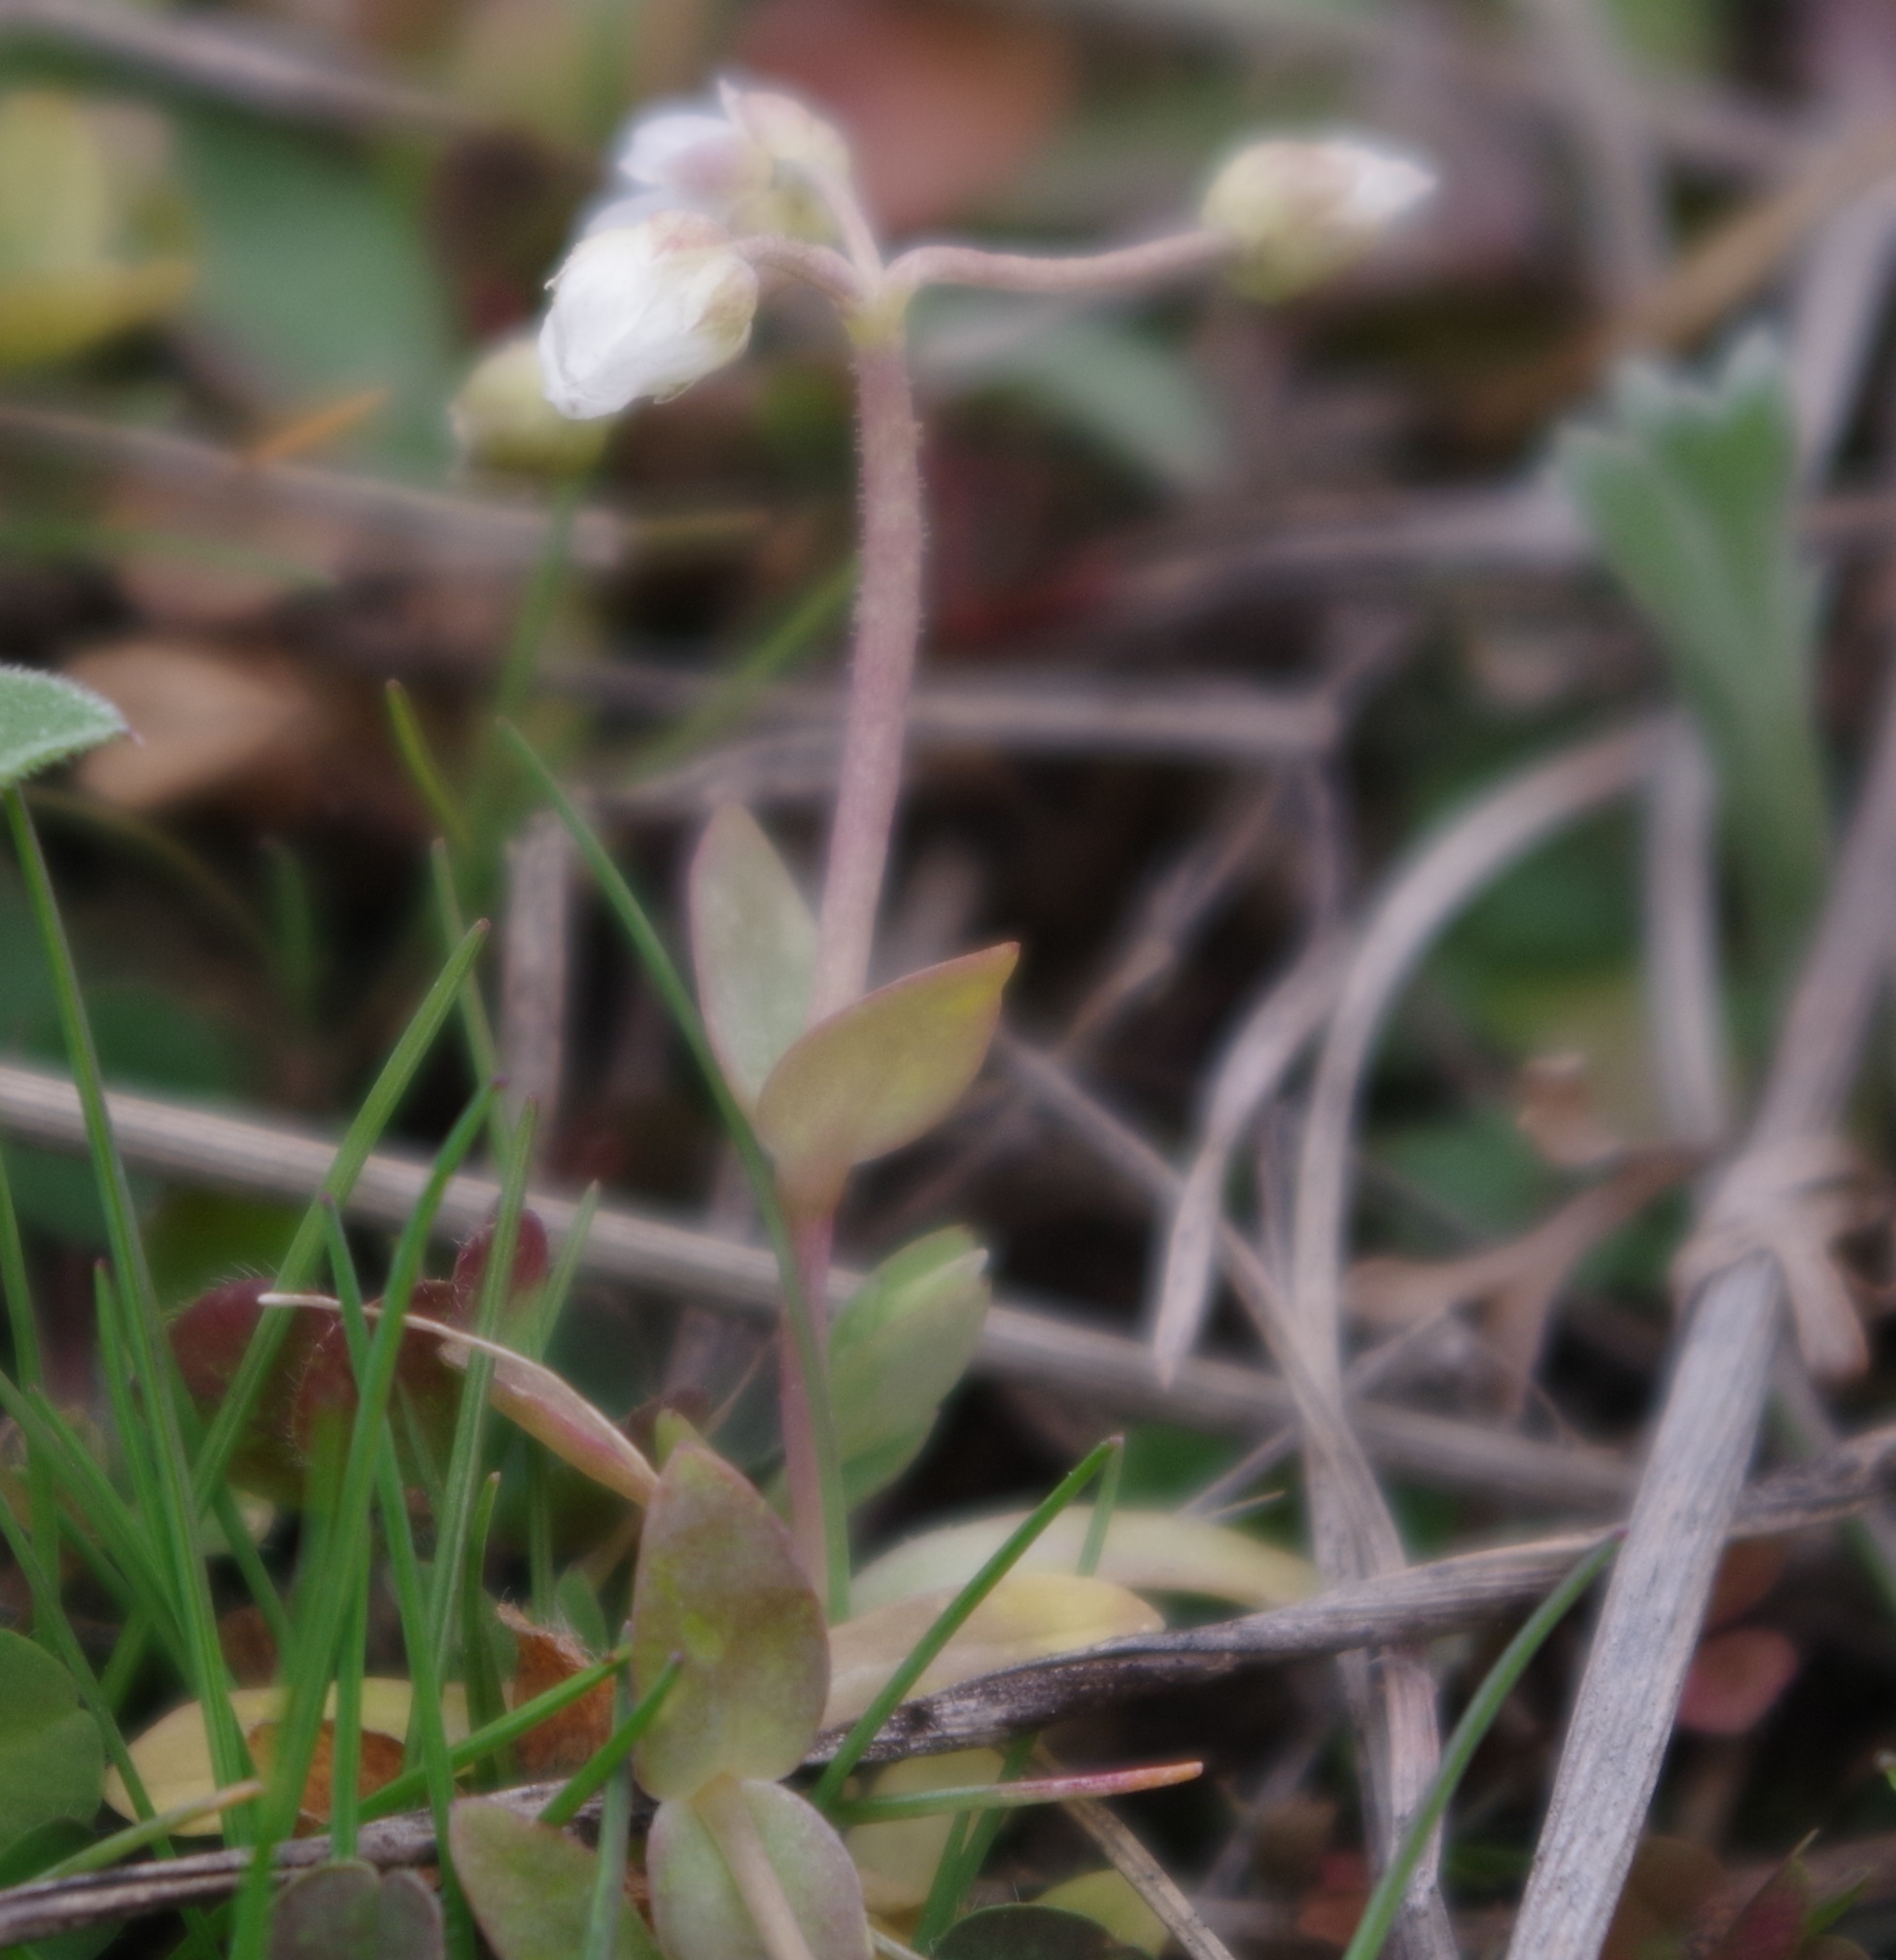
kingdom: Plantae
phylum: Tracheophyta
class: Magnoliopsida
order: Caryophyllales
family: Caryophyllaceae
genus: Holosteum
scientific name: Holosteum umbellatum
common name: Jagged chickweed
